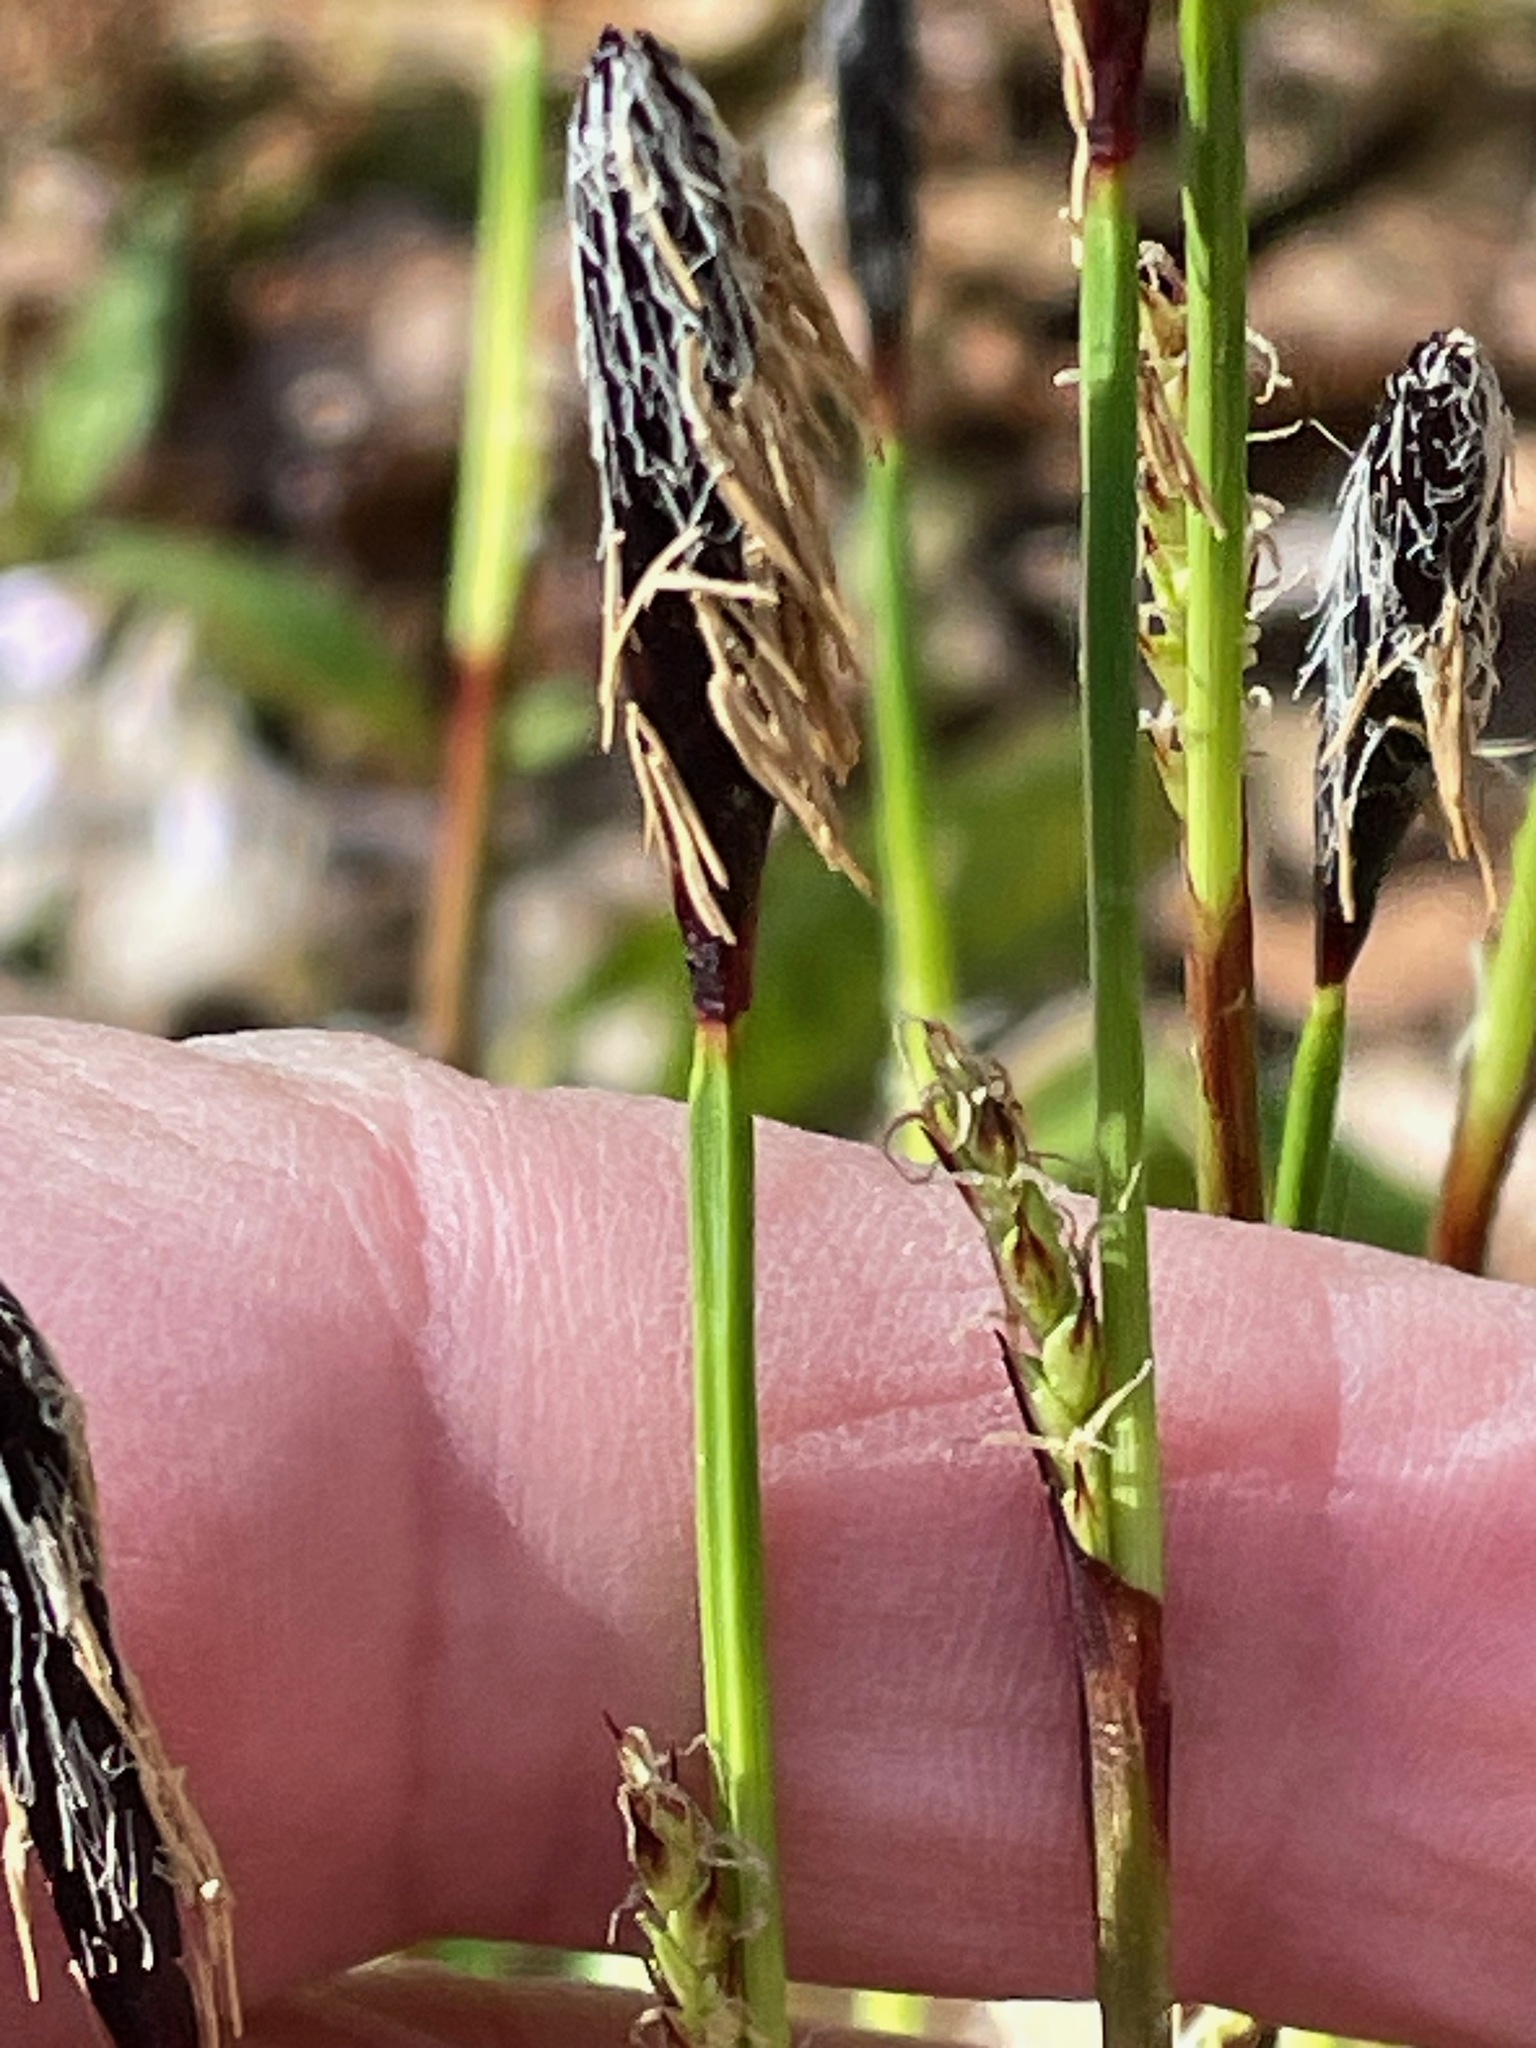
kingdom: Plantae
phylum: Tracheophyta
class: Liliopsida
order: Poales
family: Cyperaceae
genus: Carex
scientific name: Carex plantaginea
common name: Plantain-leaved sedge
